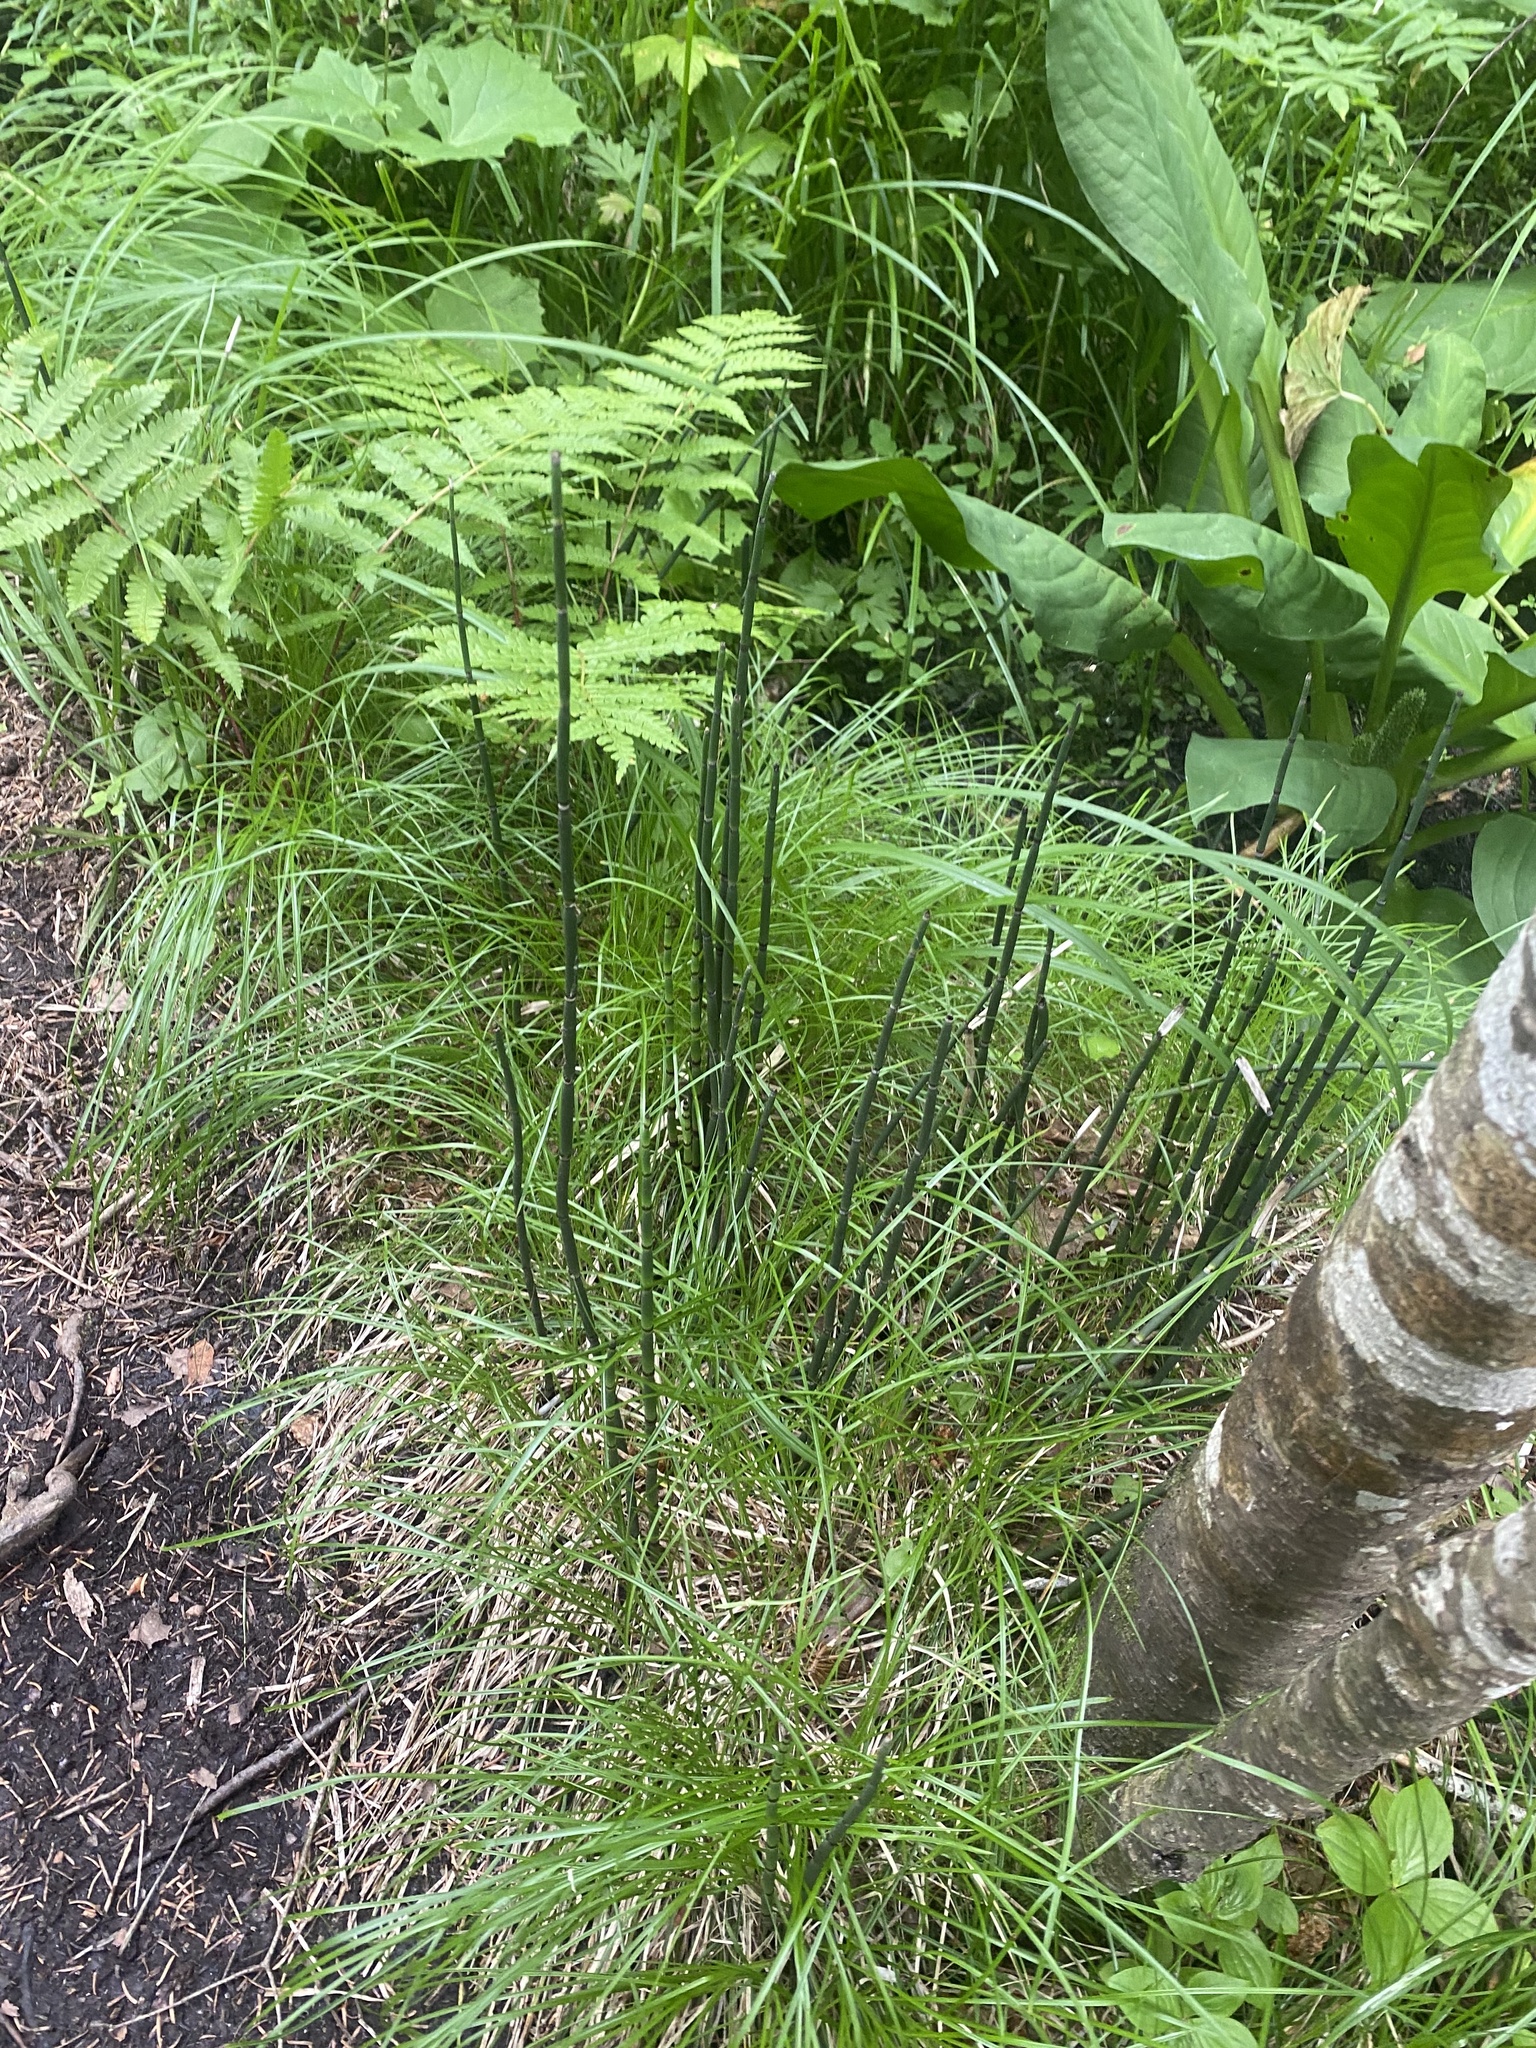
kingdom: Plantae
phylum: Tracheophyta
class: Polypodiopsida
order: Equisetales
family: Equisetaceae
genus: Equisetum
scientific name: Equisetum hyemale
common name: Rough horsetail
